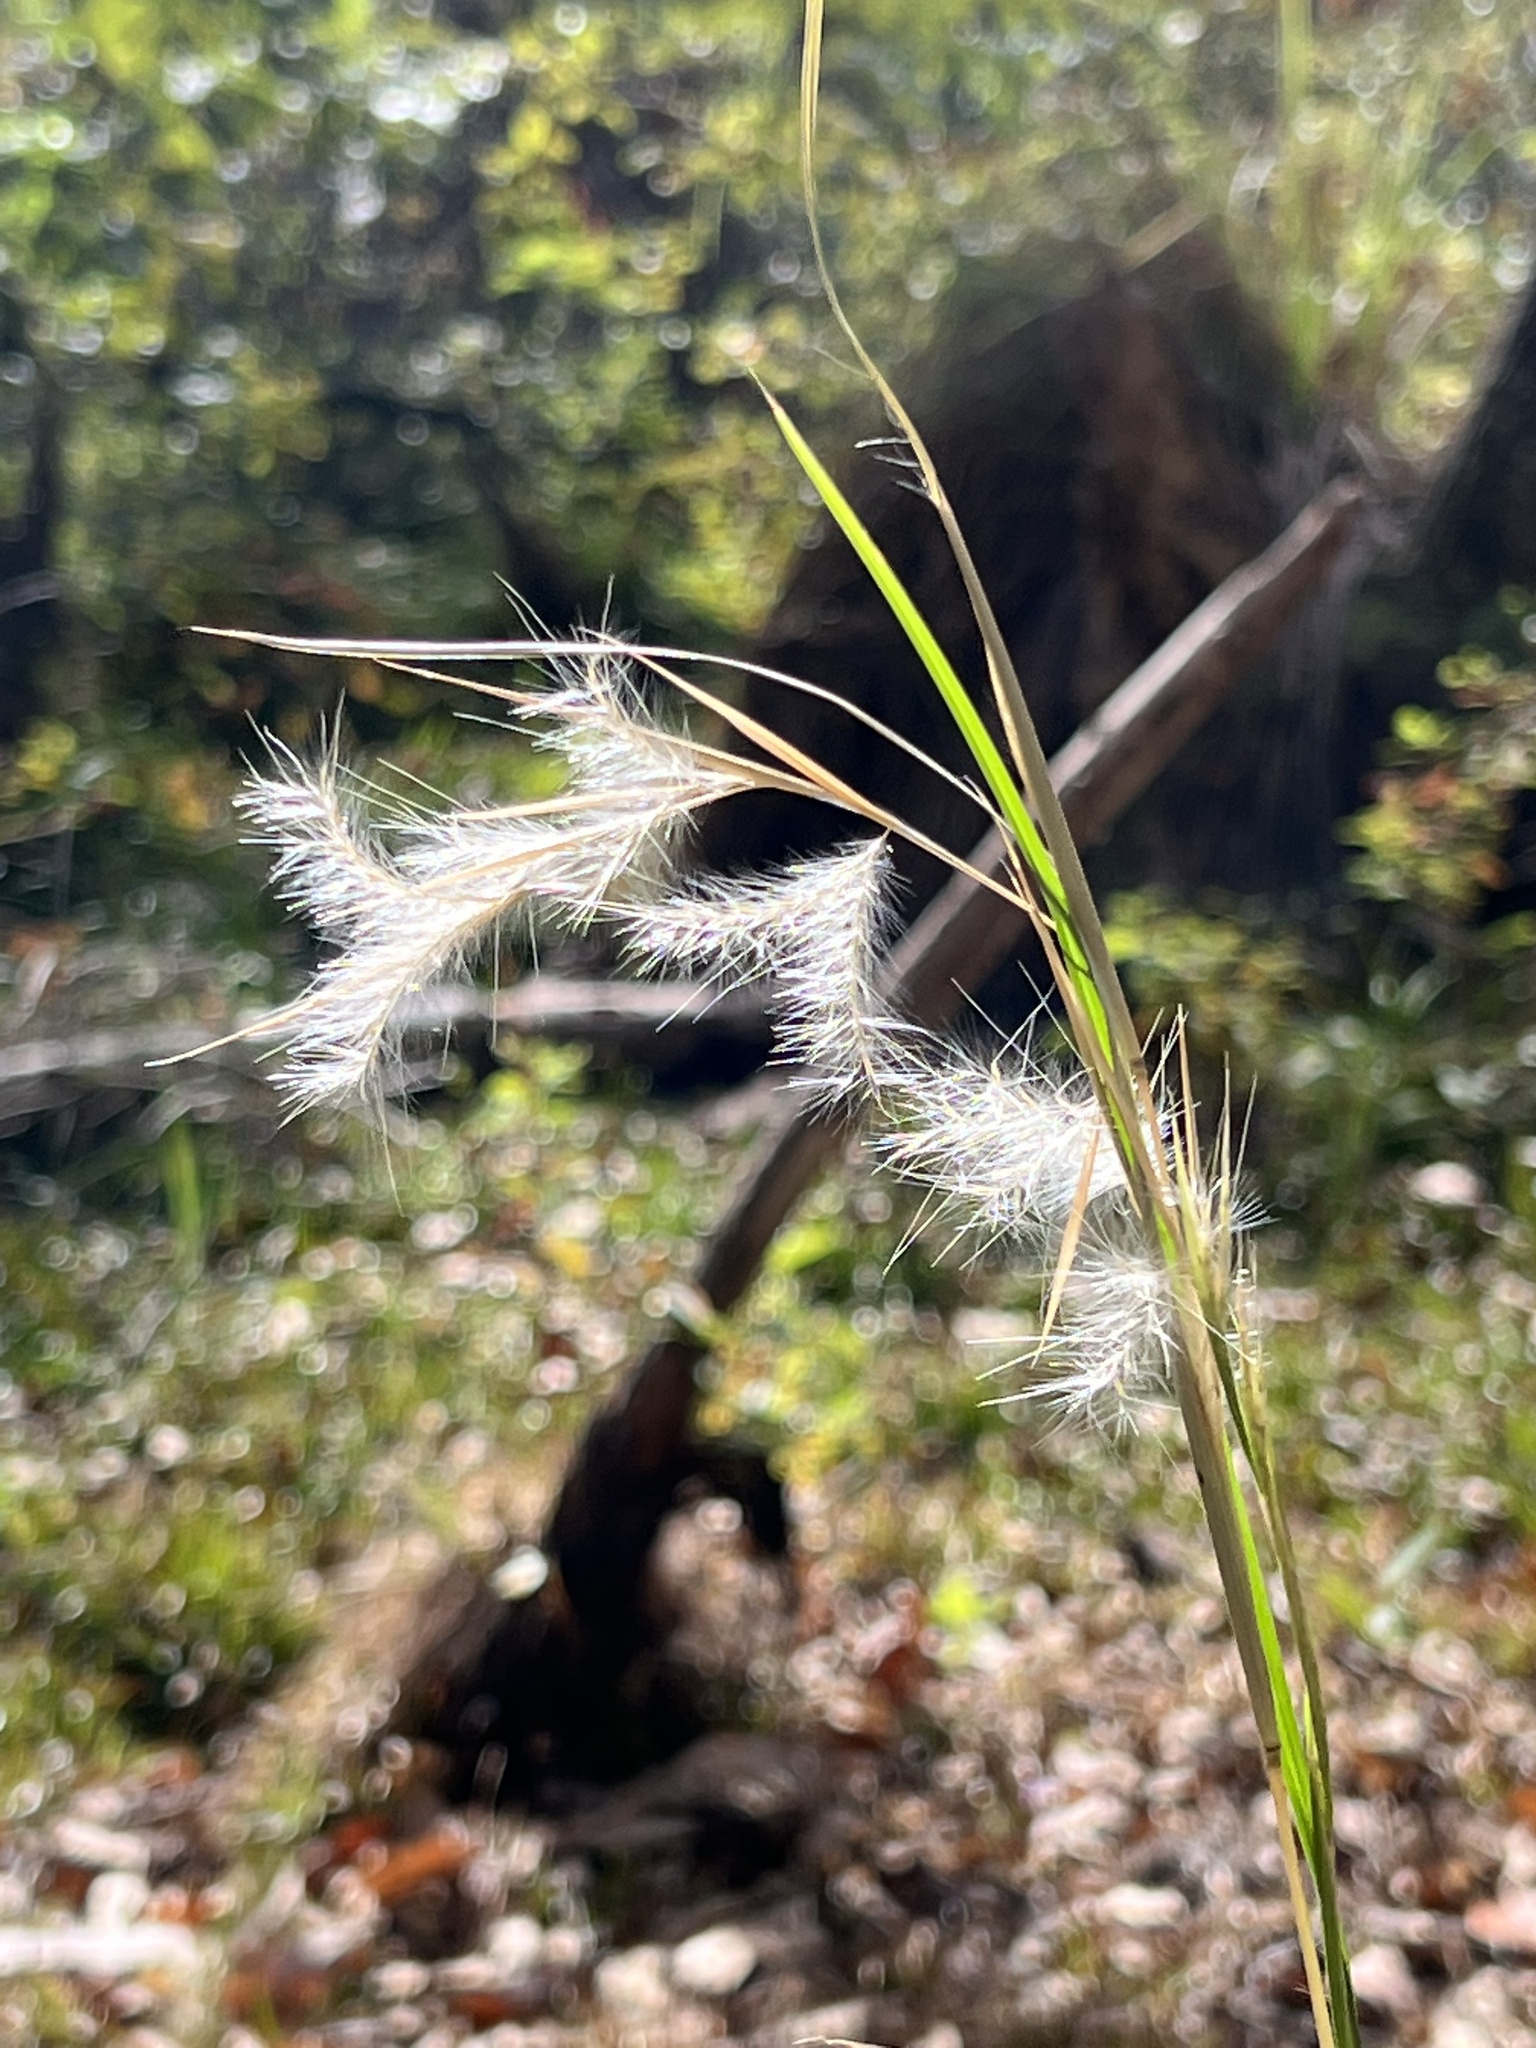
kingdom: Plantae
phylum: Tracheophyta
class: Liliopsida
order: Poales
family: Poaceae
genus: Andropogon
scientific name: Andropogon ternarius
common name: Split bluestem
